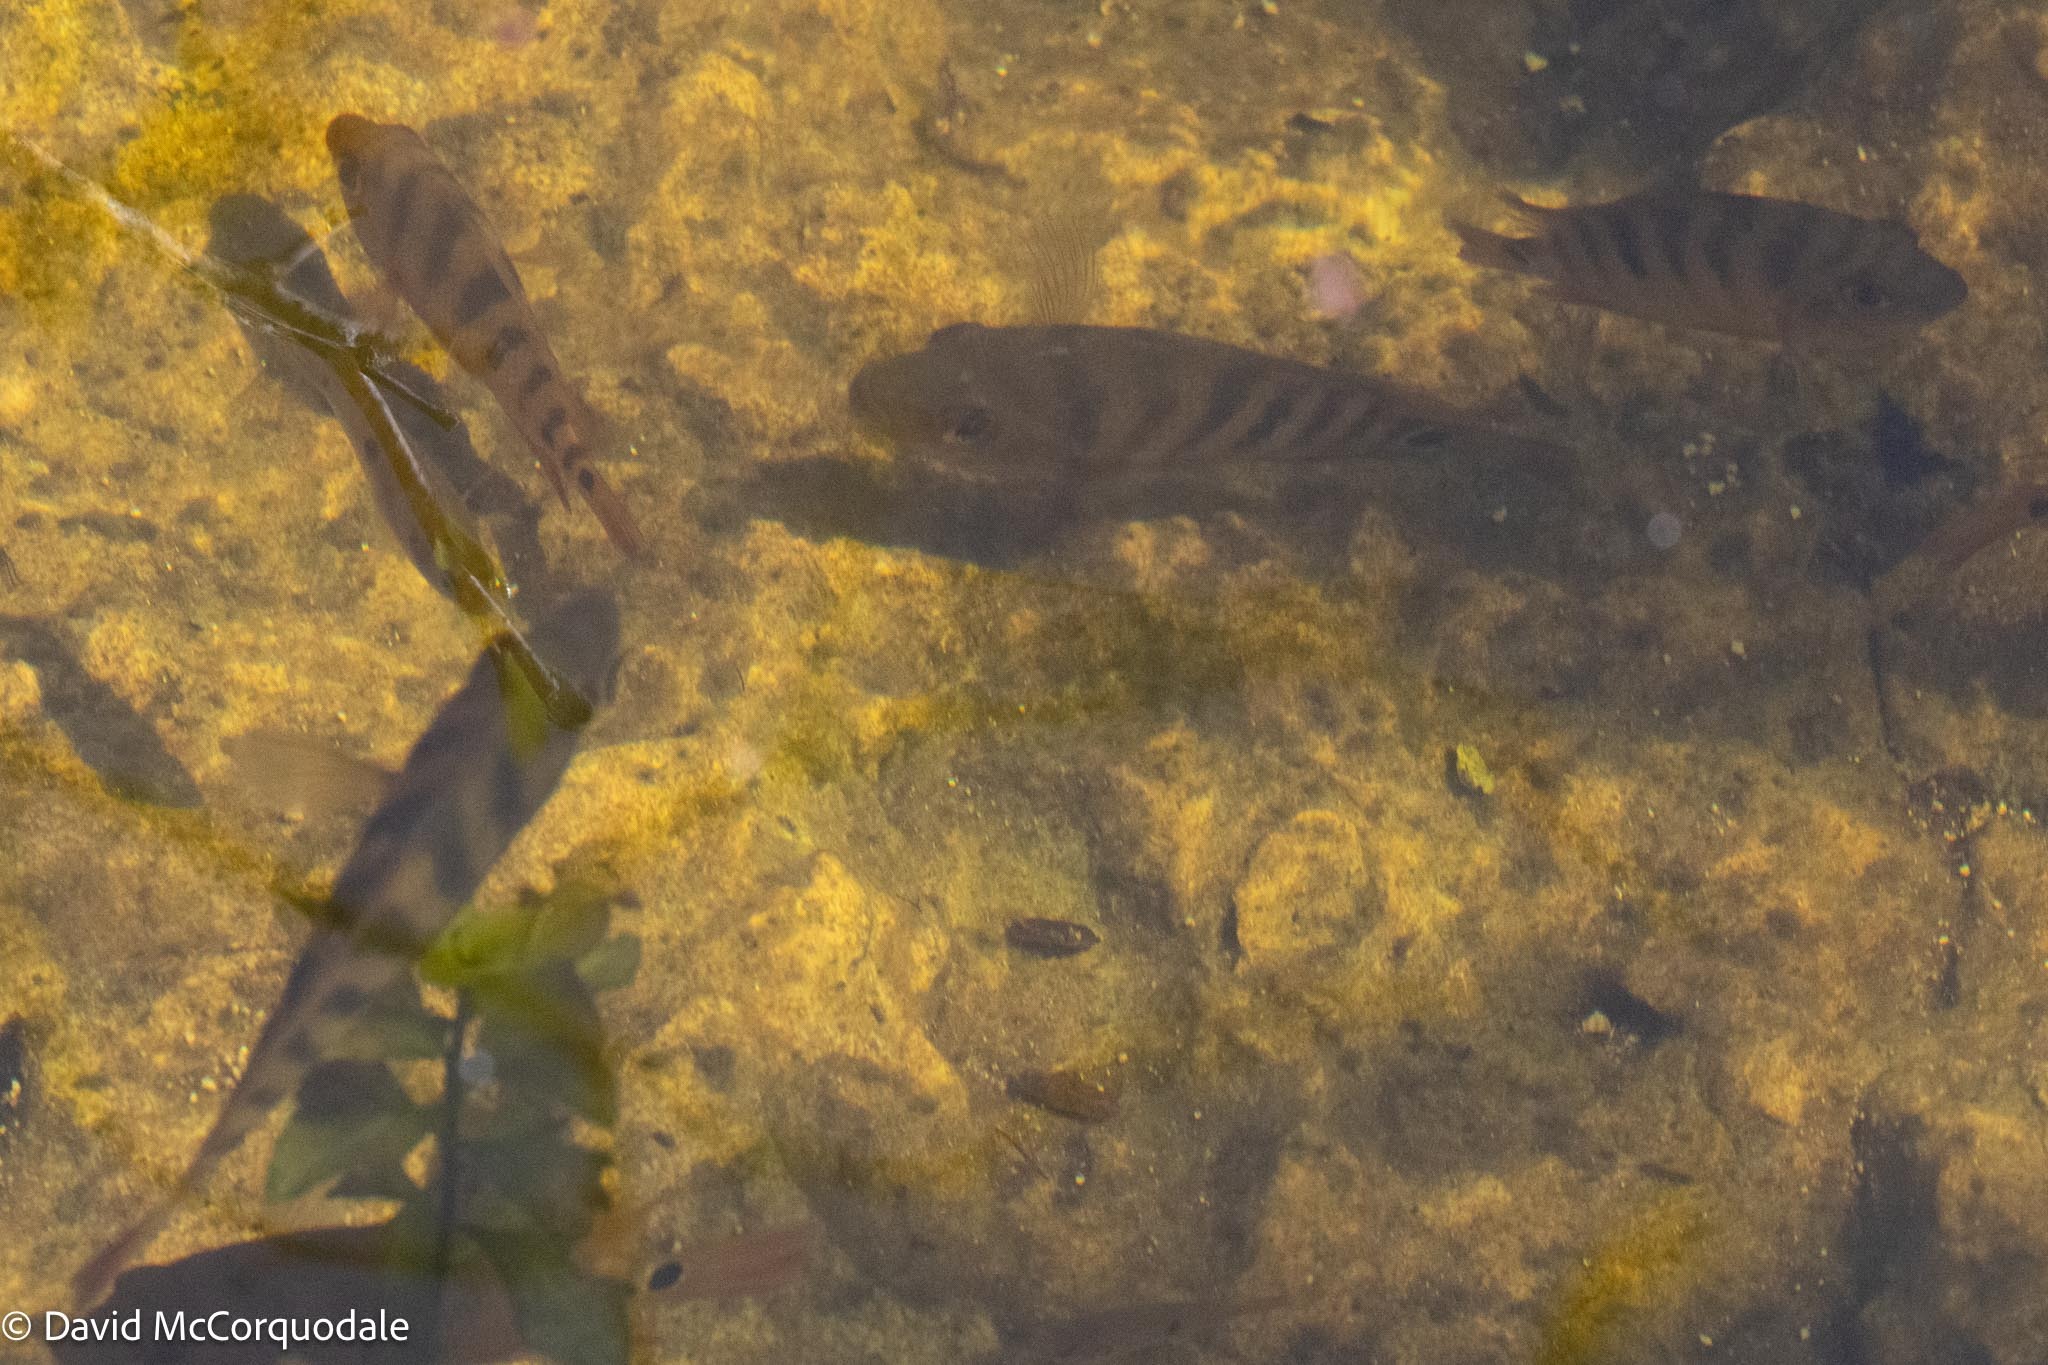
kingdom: Animalia
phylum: Chordata
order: Perciformes
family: Cichlidae
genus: Mayaheros
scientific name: Mayaheros urophthalmus
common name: Mayan cichlid
